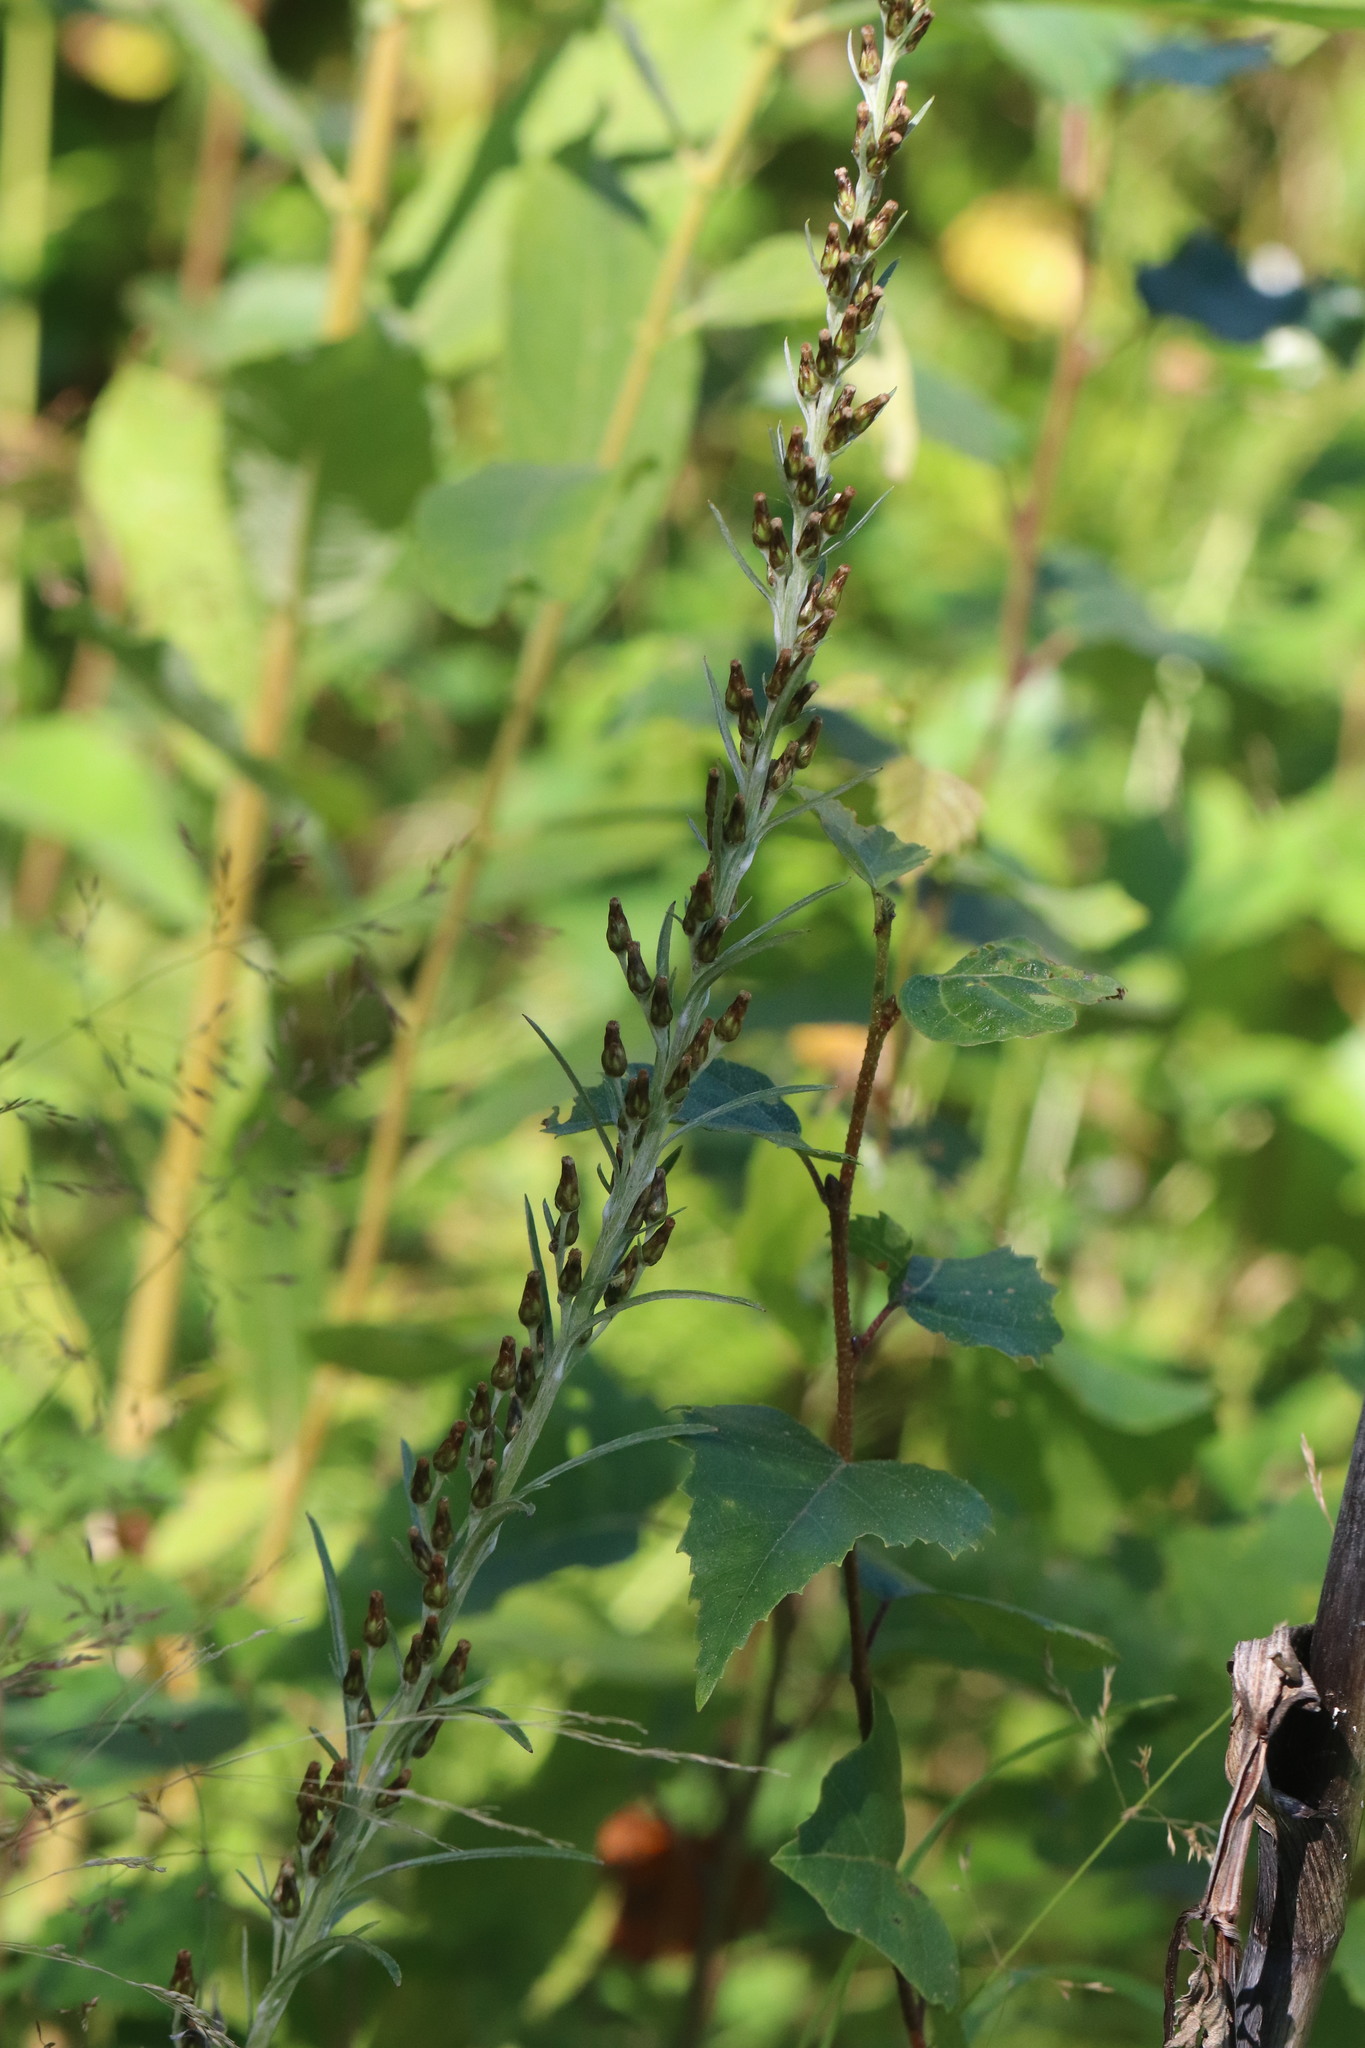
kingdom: Plantae
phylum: Tracheophyta
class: Magnoliopsida
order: Asterales
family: Asteraceae
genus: Omalotheca
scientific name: Omalotheca sylvatica
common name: Heath cudweed
